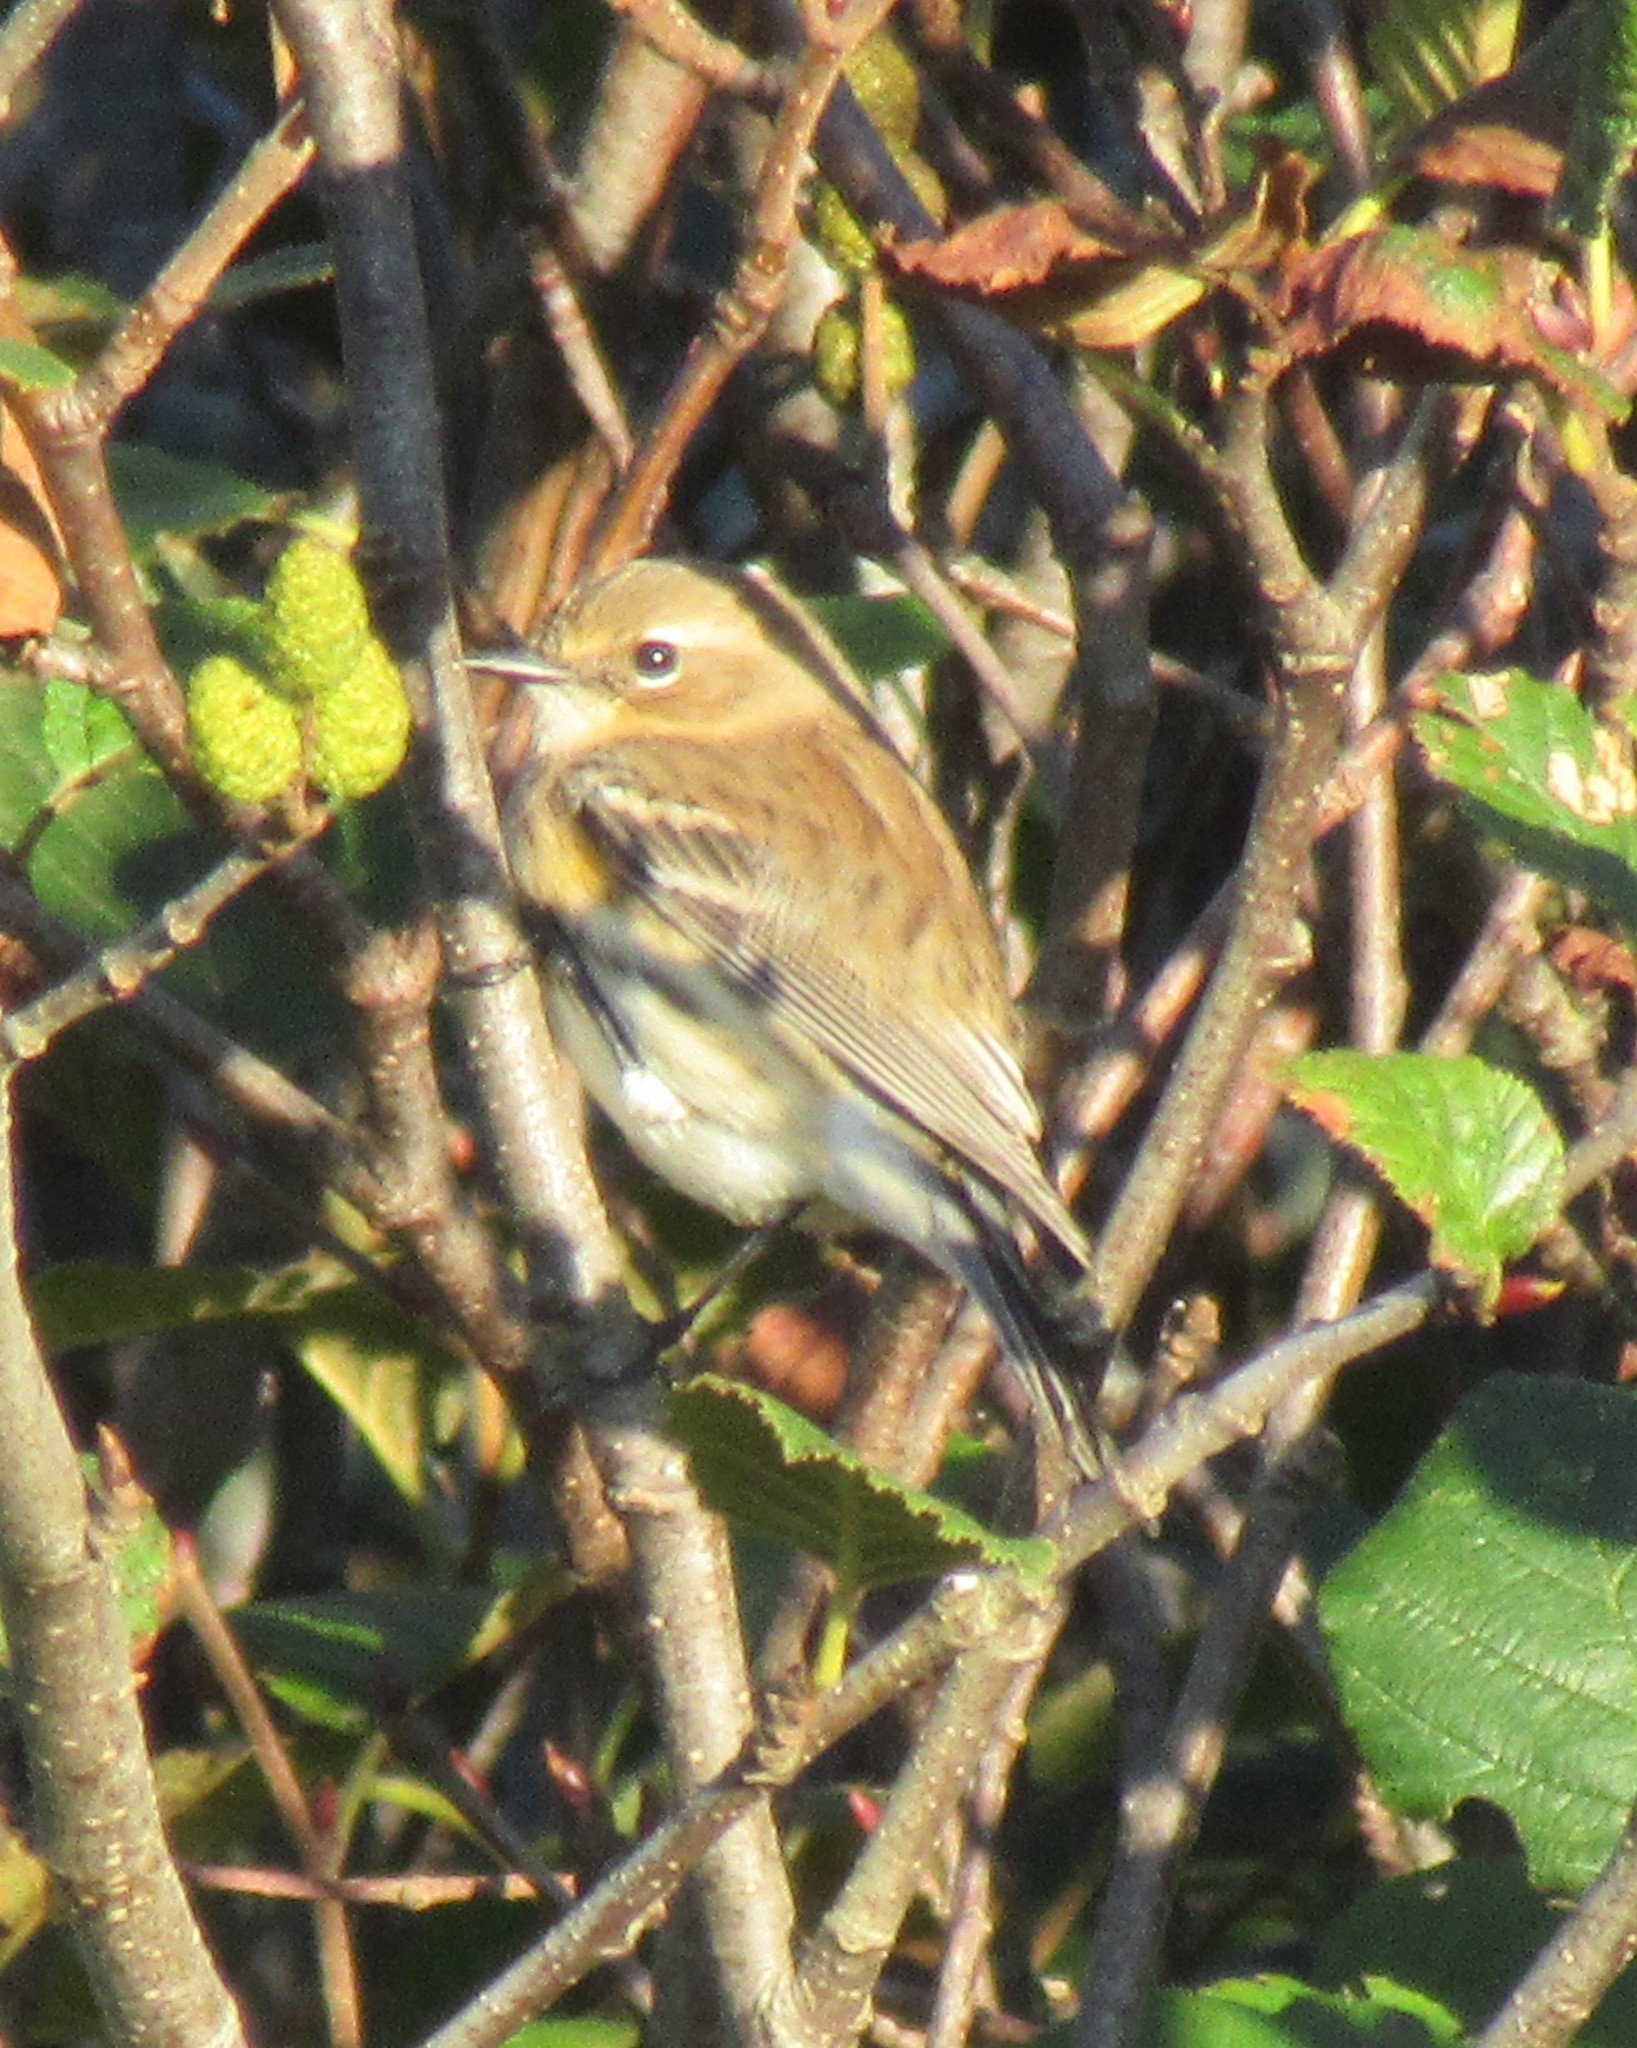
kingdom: Animalia
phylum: Chordata
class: Aves
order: Passeriformes
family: Parulidae
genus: Setophaga
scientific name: Setophaga coronata
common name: Myrtle warbler
